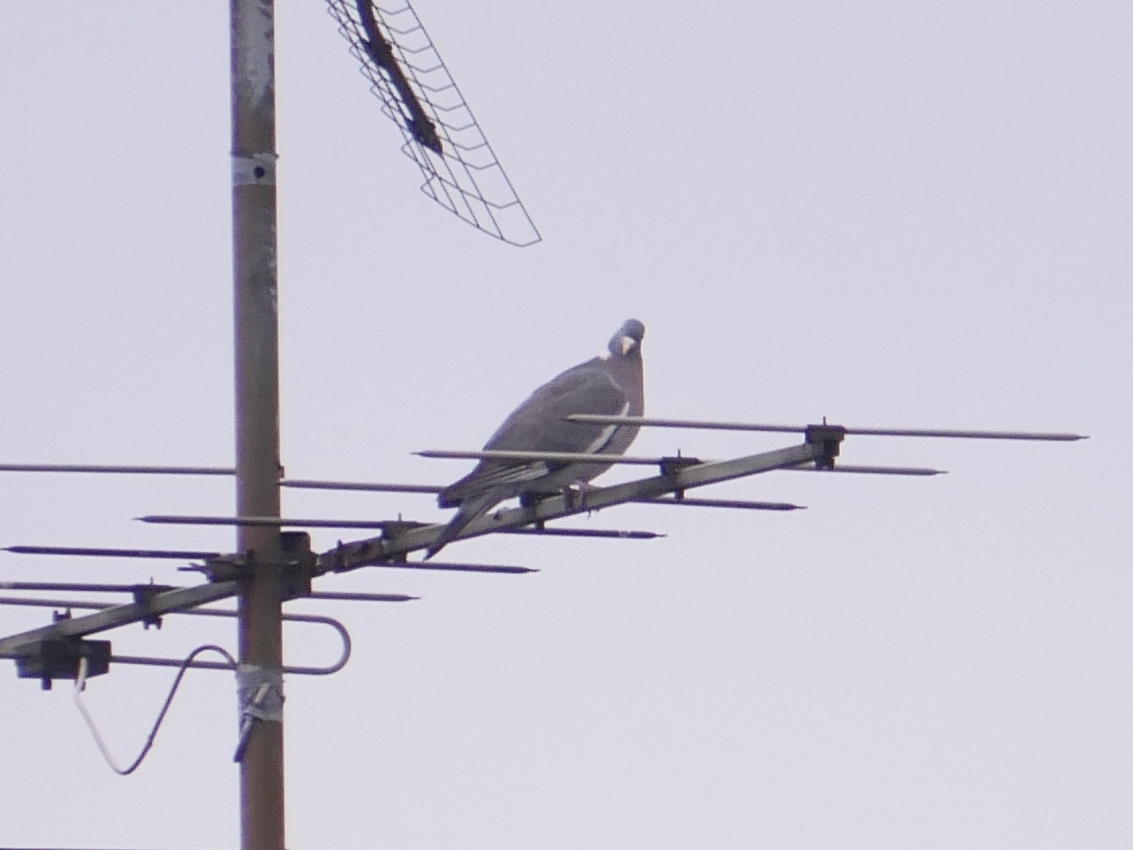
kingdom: Animalia
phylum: Chordata
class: Aves
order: Columbiformes
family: Columbidae
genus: Columba
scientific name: Columba palumbus
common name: Common wood pigeon
